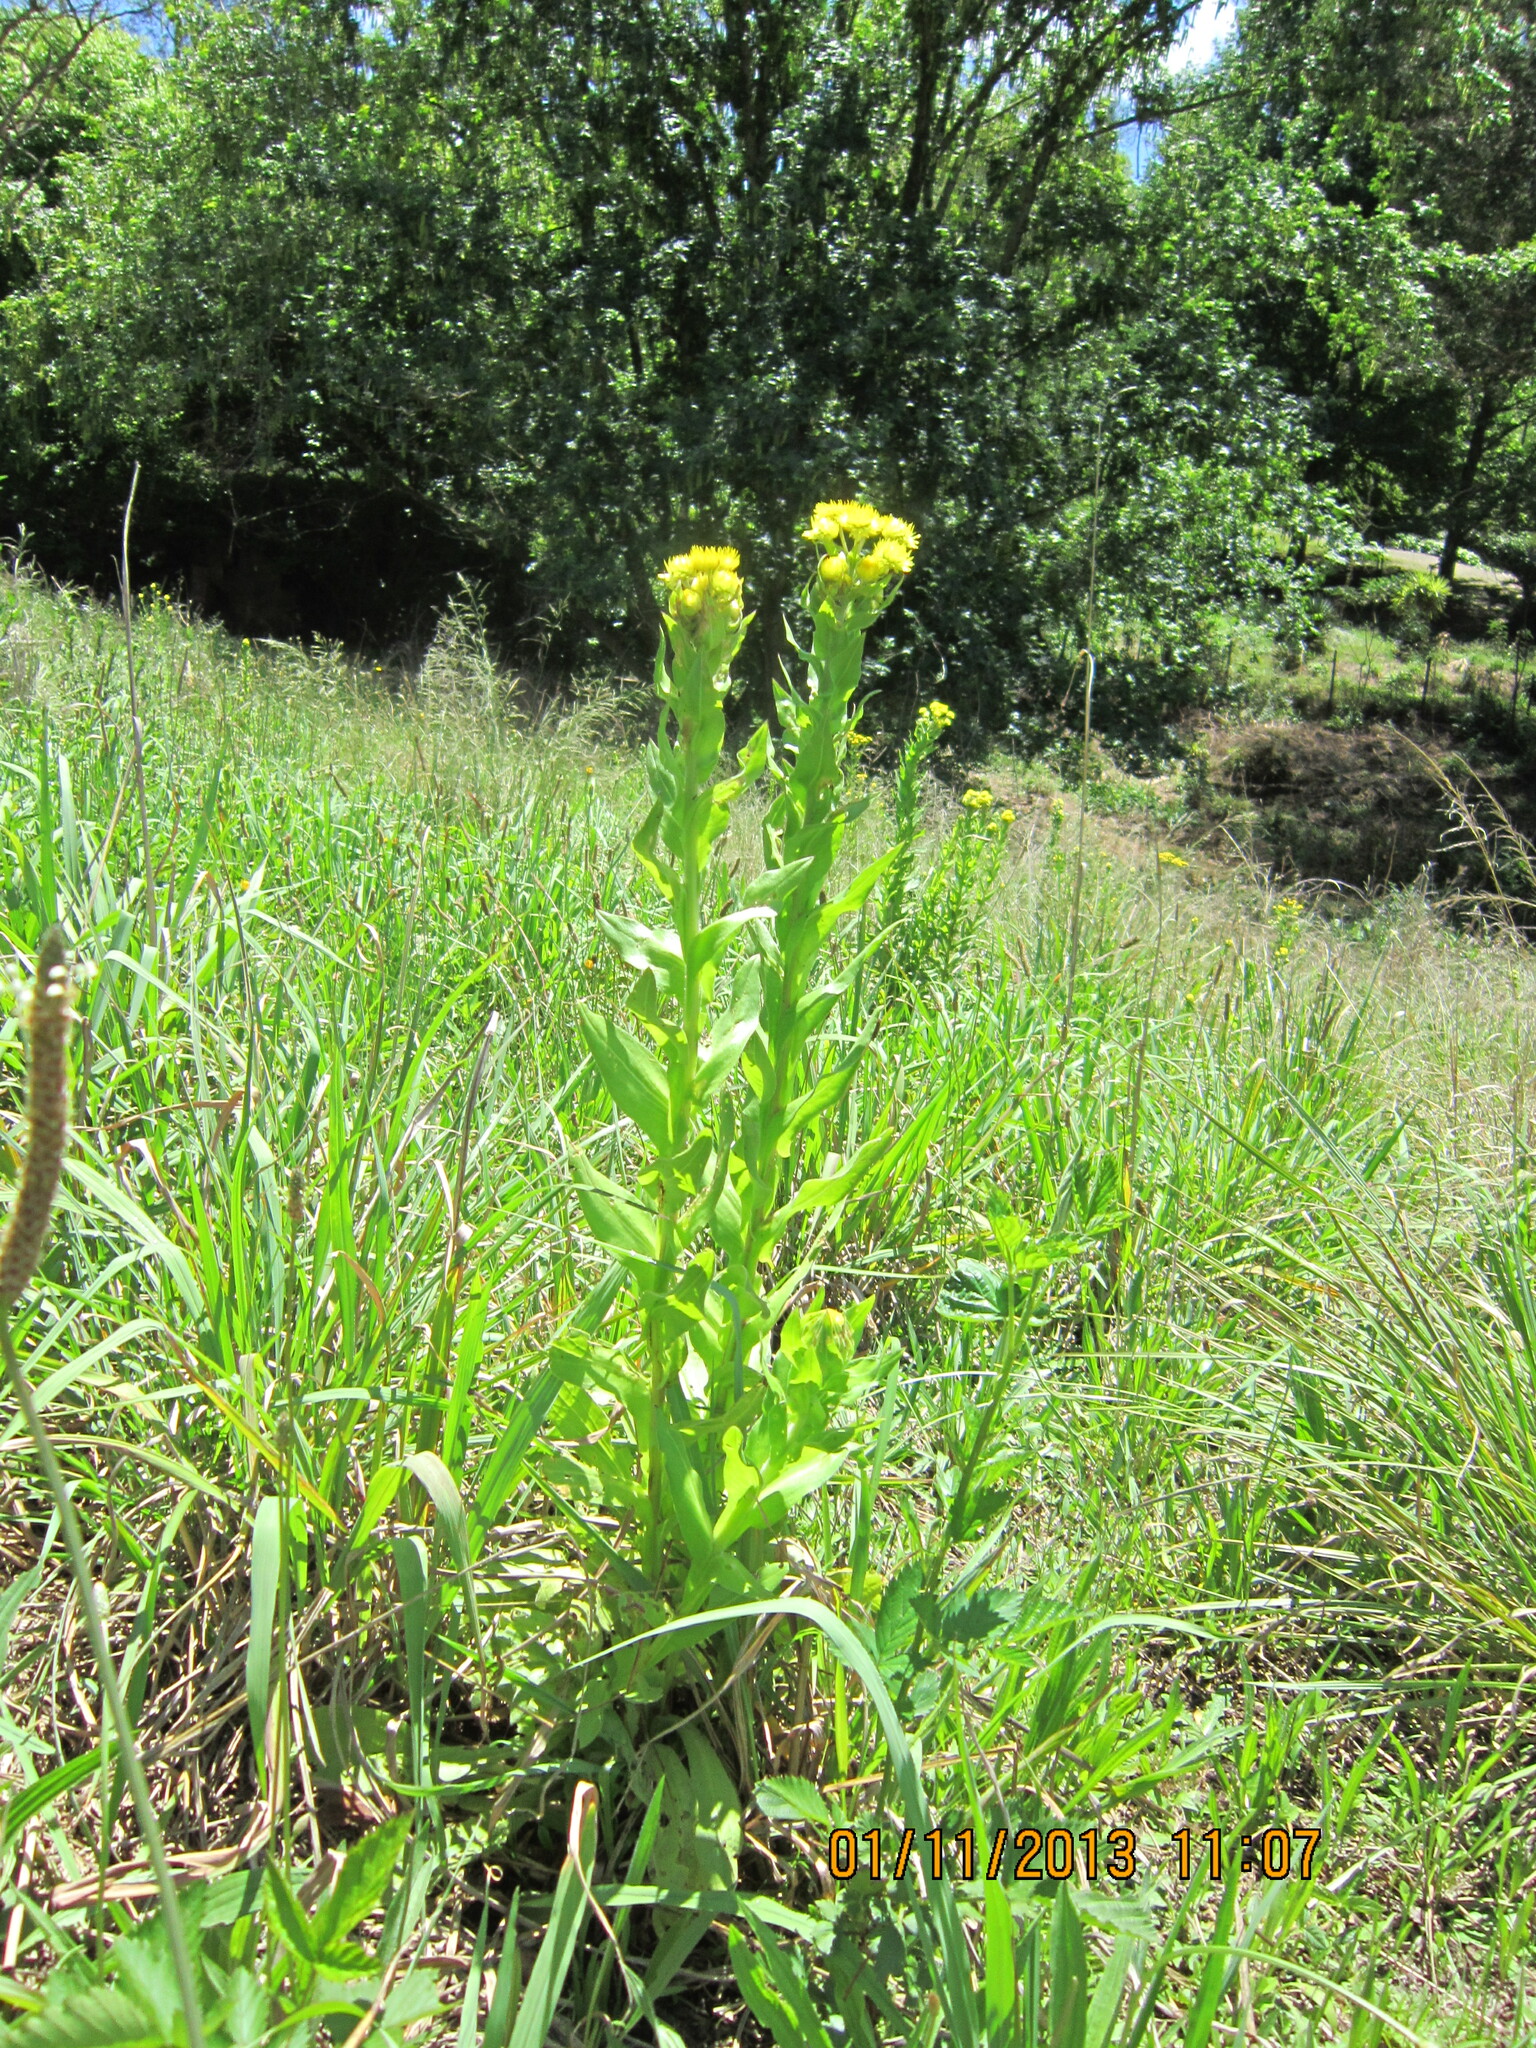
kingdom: Plantae
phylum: Tracheophyta
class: Magnoliopsida
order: Asterales
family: Asteraceae
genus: Helichrysum
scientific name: Helichrysum ruderale
